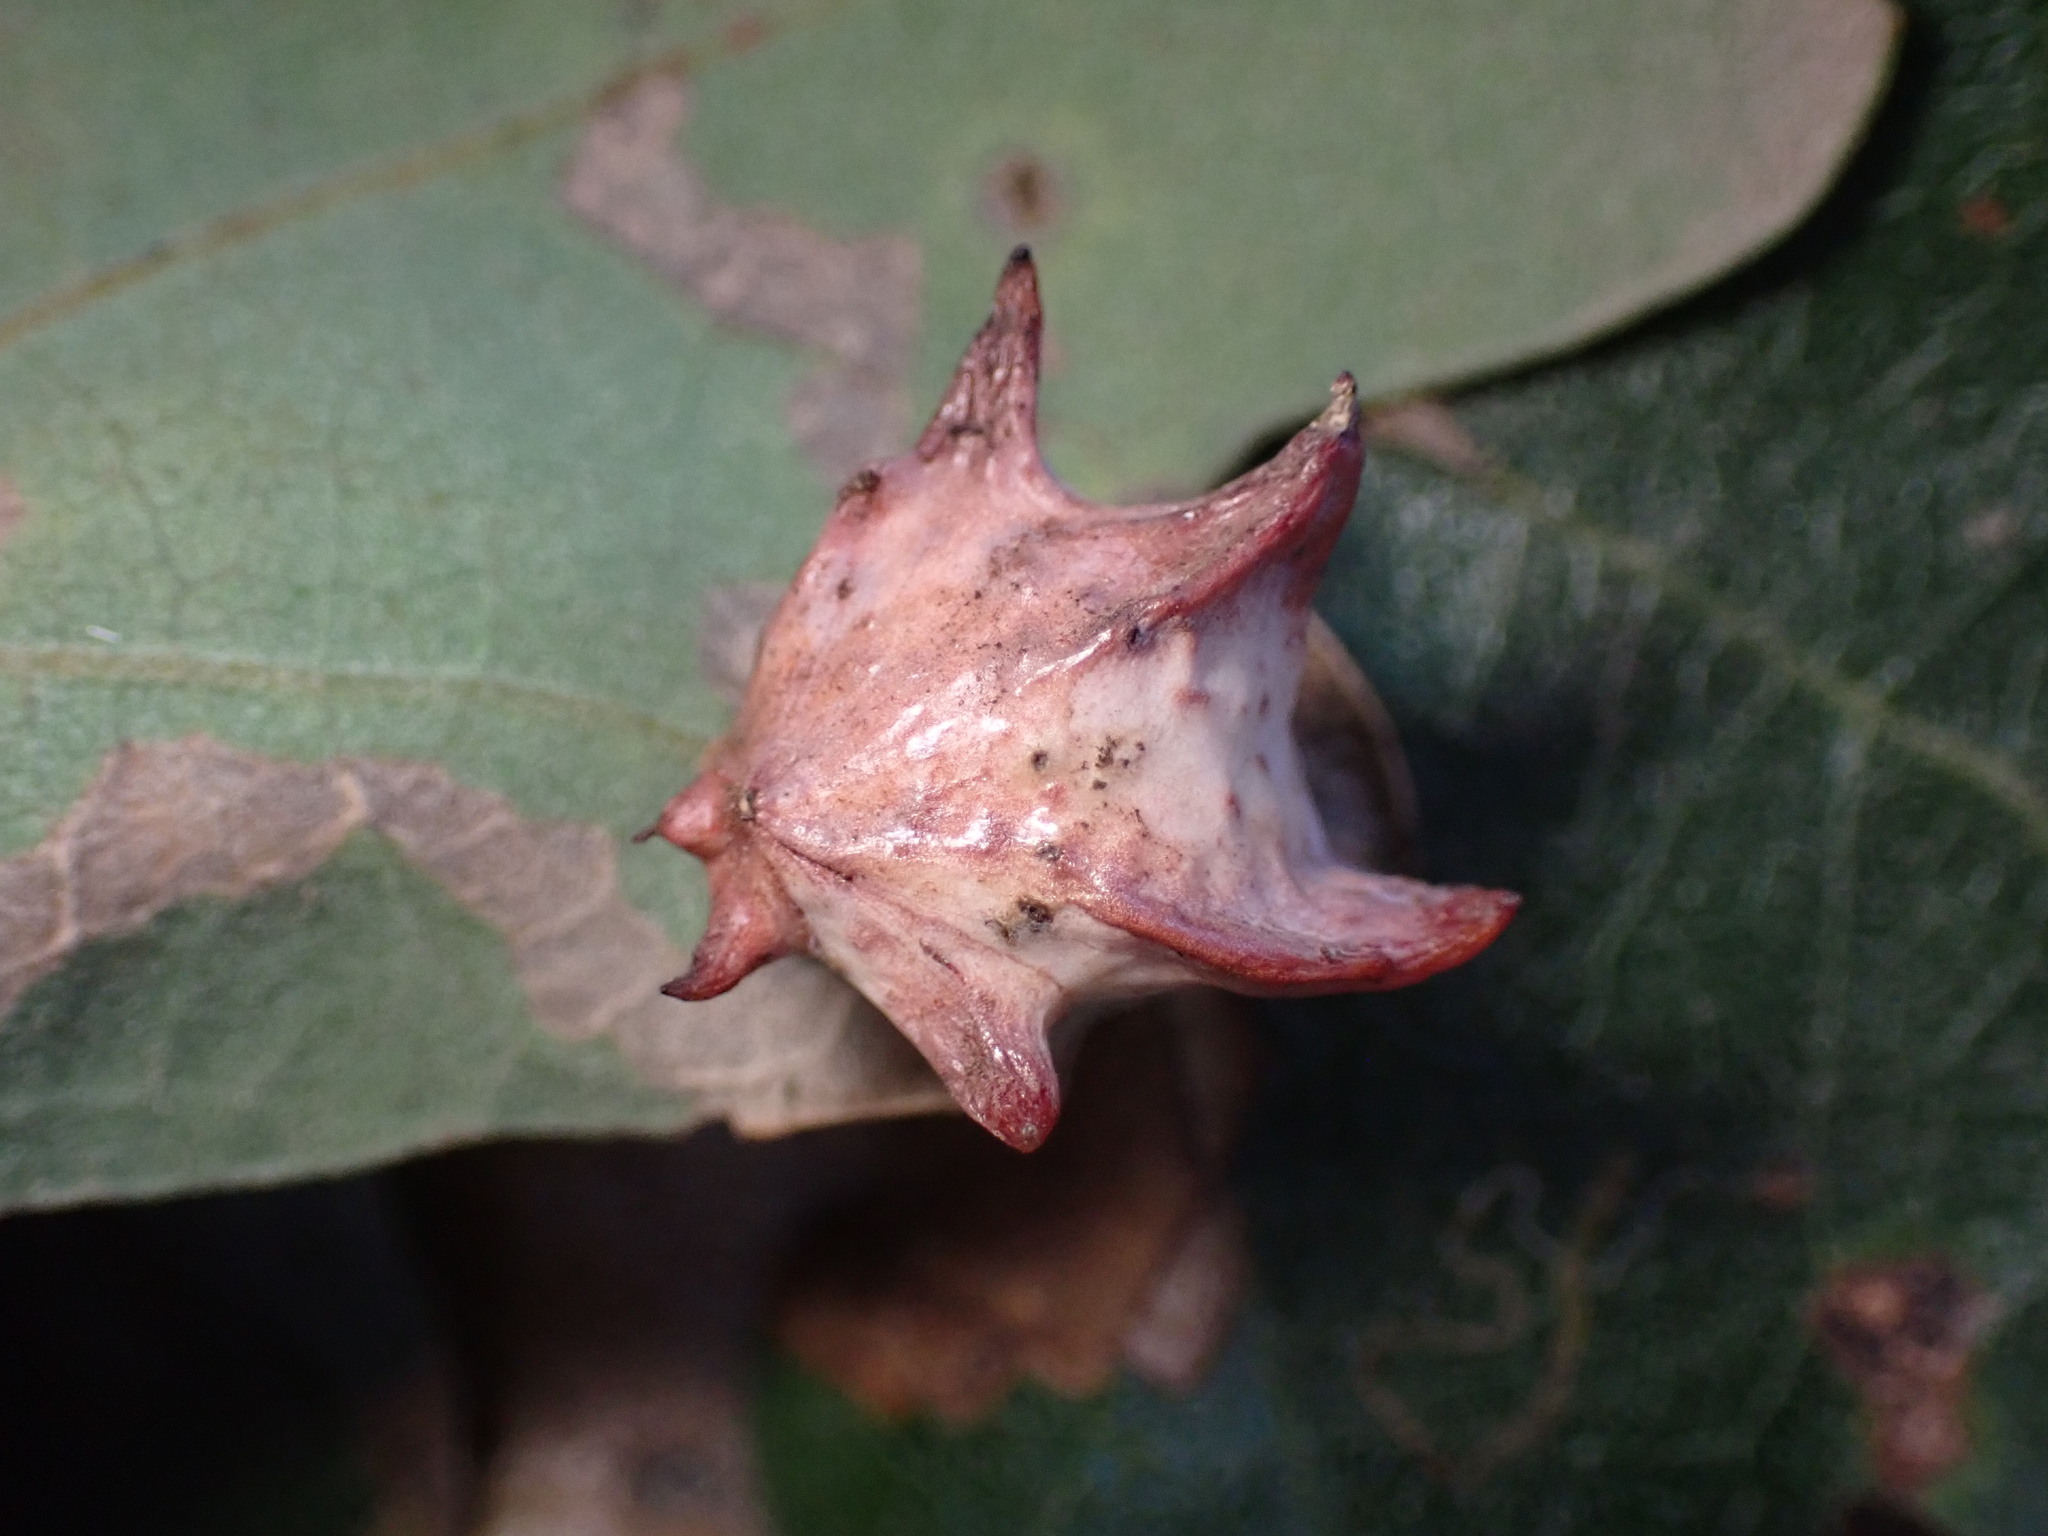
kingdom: Animalia
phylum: Arthropoda
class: Insecta
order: Hymenoptera
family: Cynipidae
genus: Cynips
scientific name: Cynips douglasi
